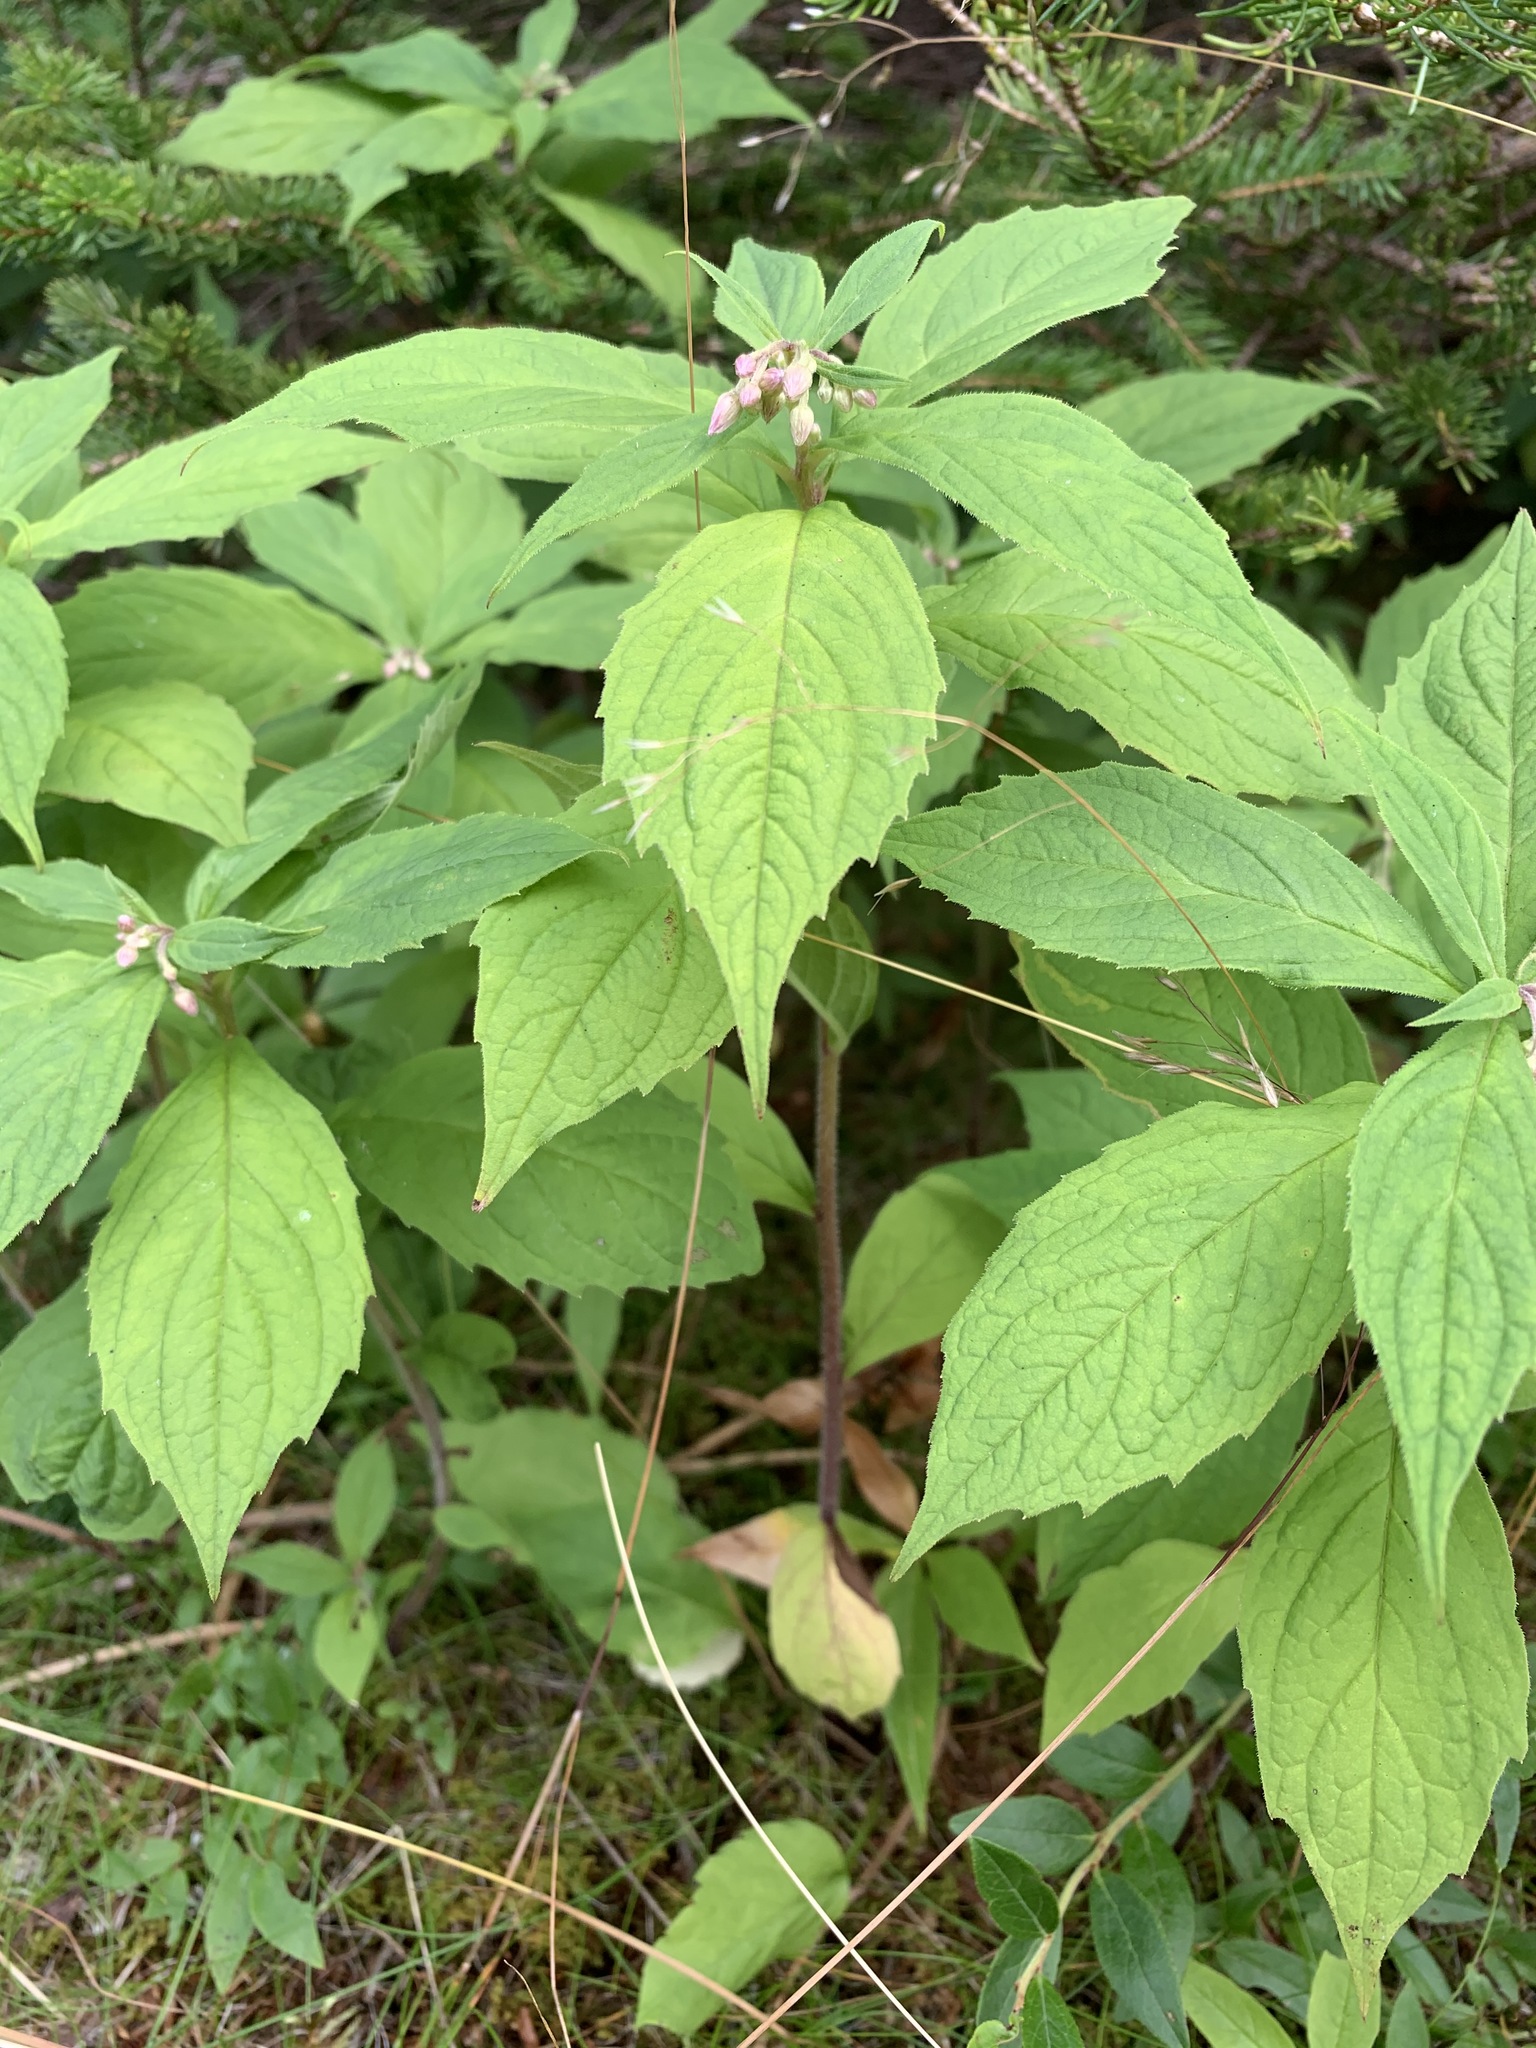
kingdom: Plantae
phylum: Tracheophyta
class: Magnoliopsida
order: Asterales
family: Asteraceae
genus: Oclemena
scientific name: Oclemena acuminata
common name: Mountain aster
